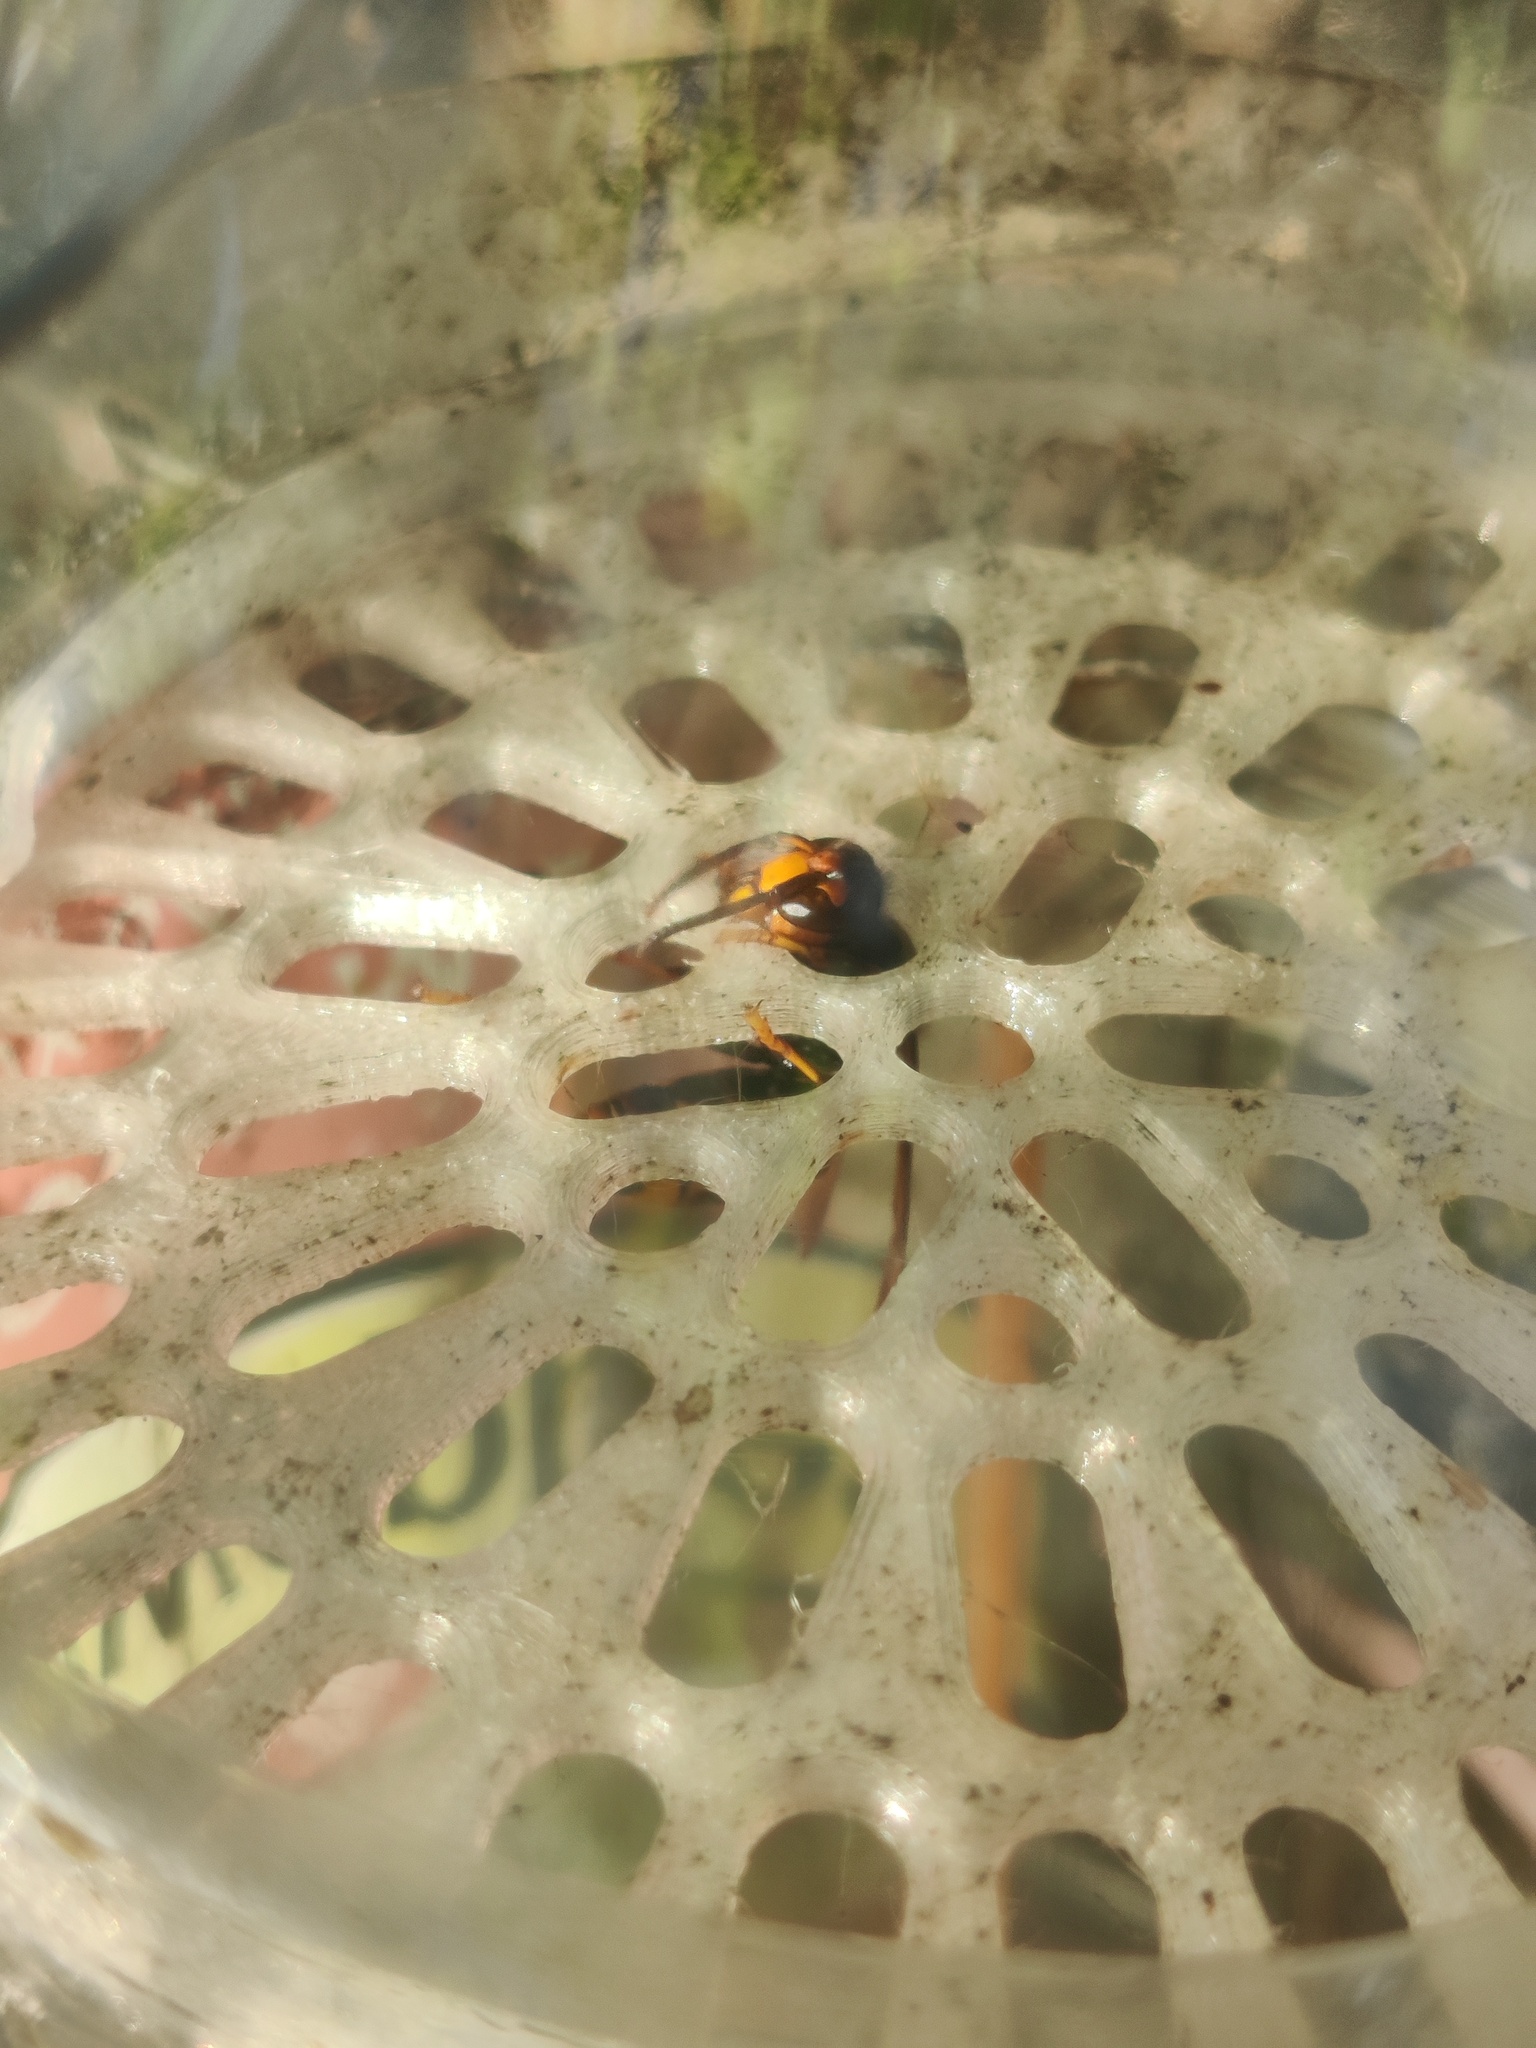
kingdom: Animalia
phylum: Arthropoda
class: Insecta
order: Hymenoptera
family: Vespidae
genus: Vespa
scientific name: Vespa velutina
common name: Asian hornet
